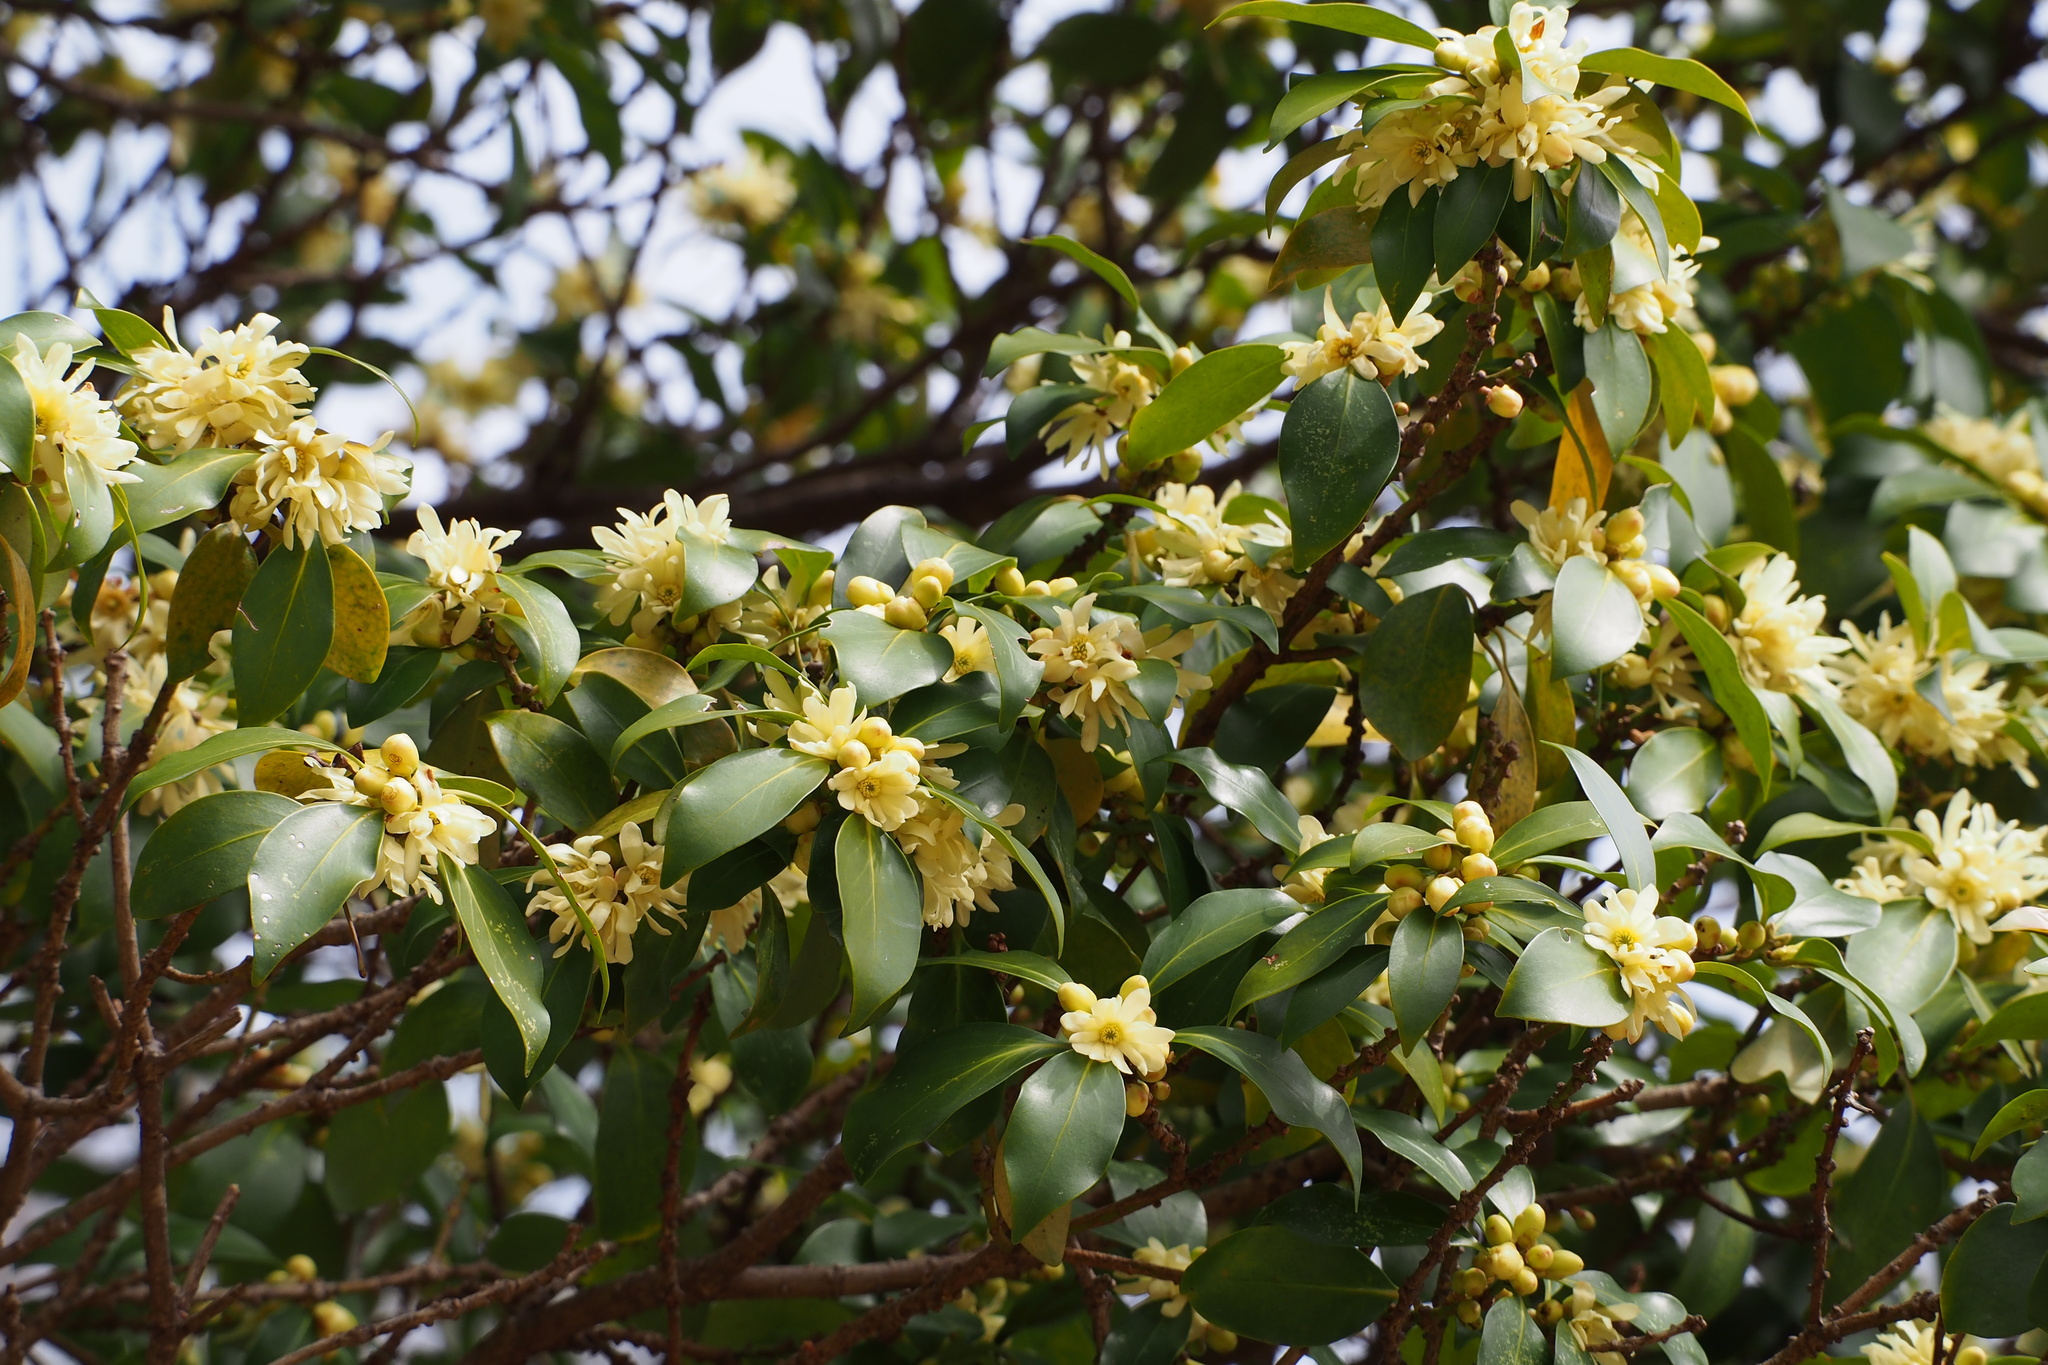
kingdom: Plantae
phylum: Tracheophyta
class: Magnoliopsida
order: Austrobaileyales
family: Schisandraceae
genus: Illicium
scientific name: Illicium anisatum
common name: Sacred anisetree
